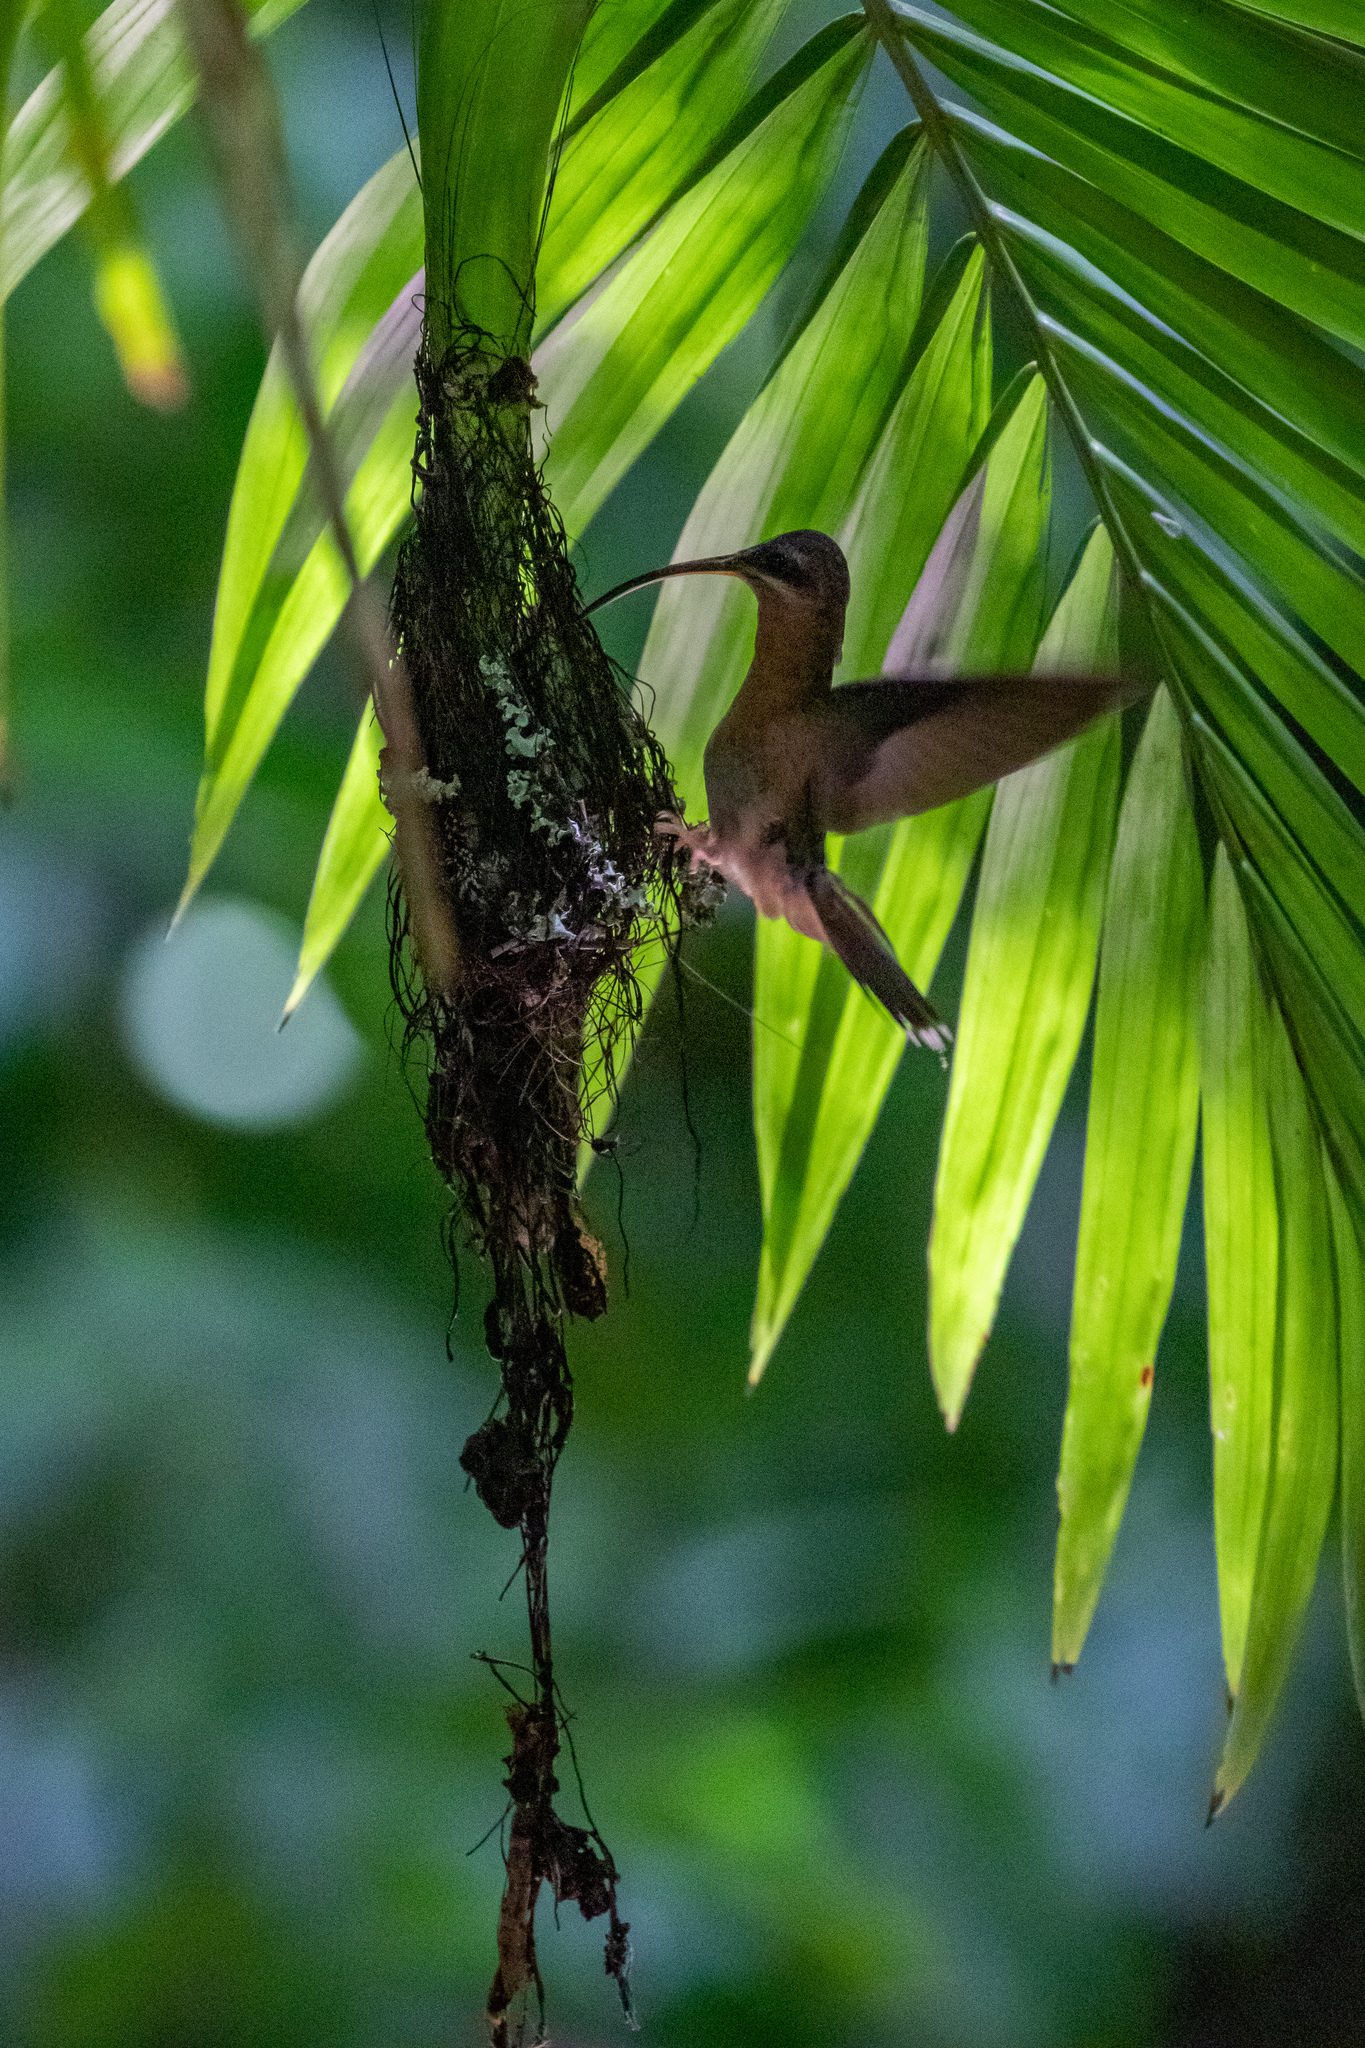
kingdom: Animalia
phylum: Chordata
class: Aves
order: Apodiformes
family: Trochilidae
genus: Glaucis
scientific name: Glaucis hirsutus
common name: Rufous-breasted hermit
